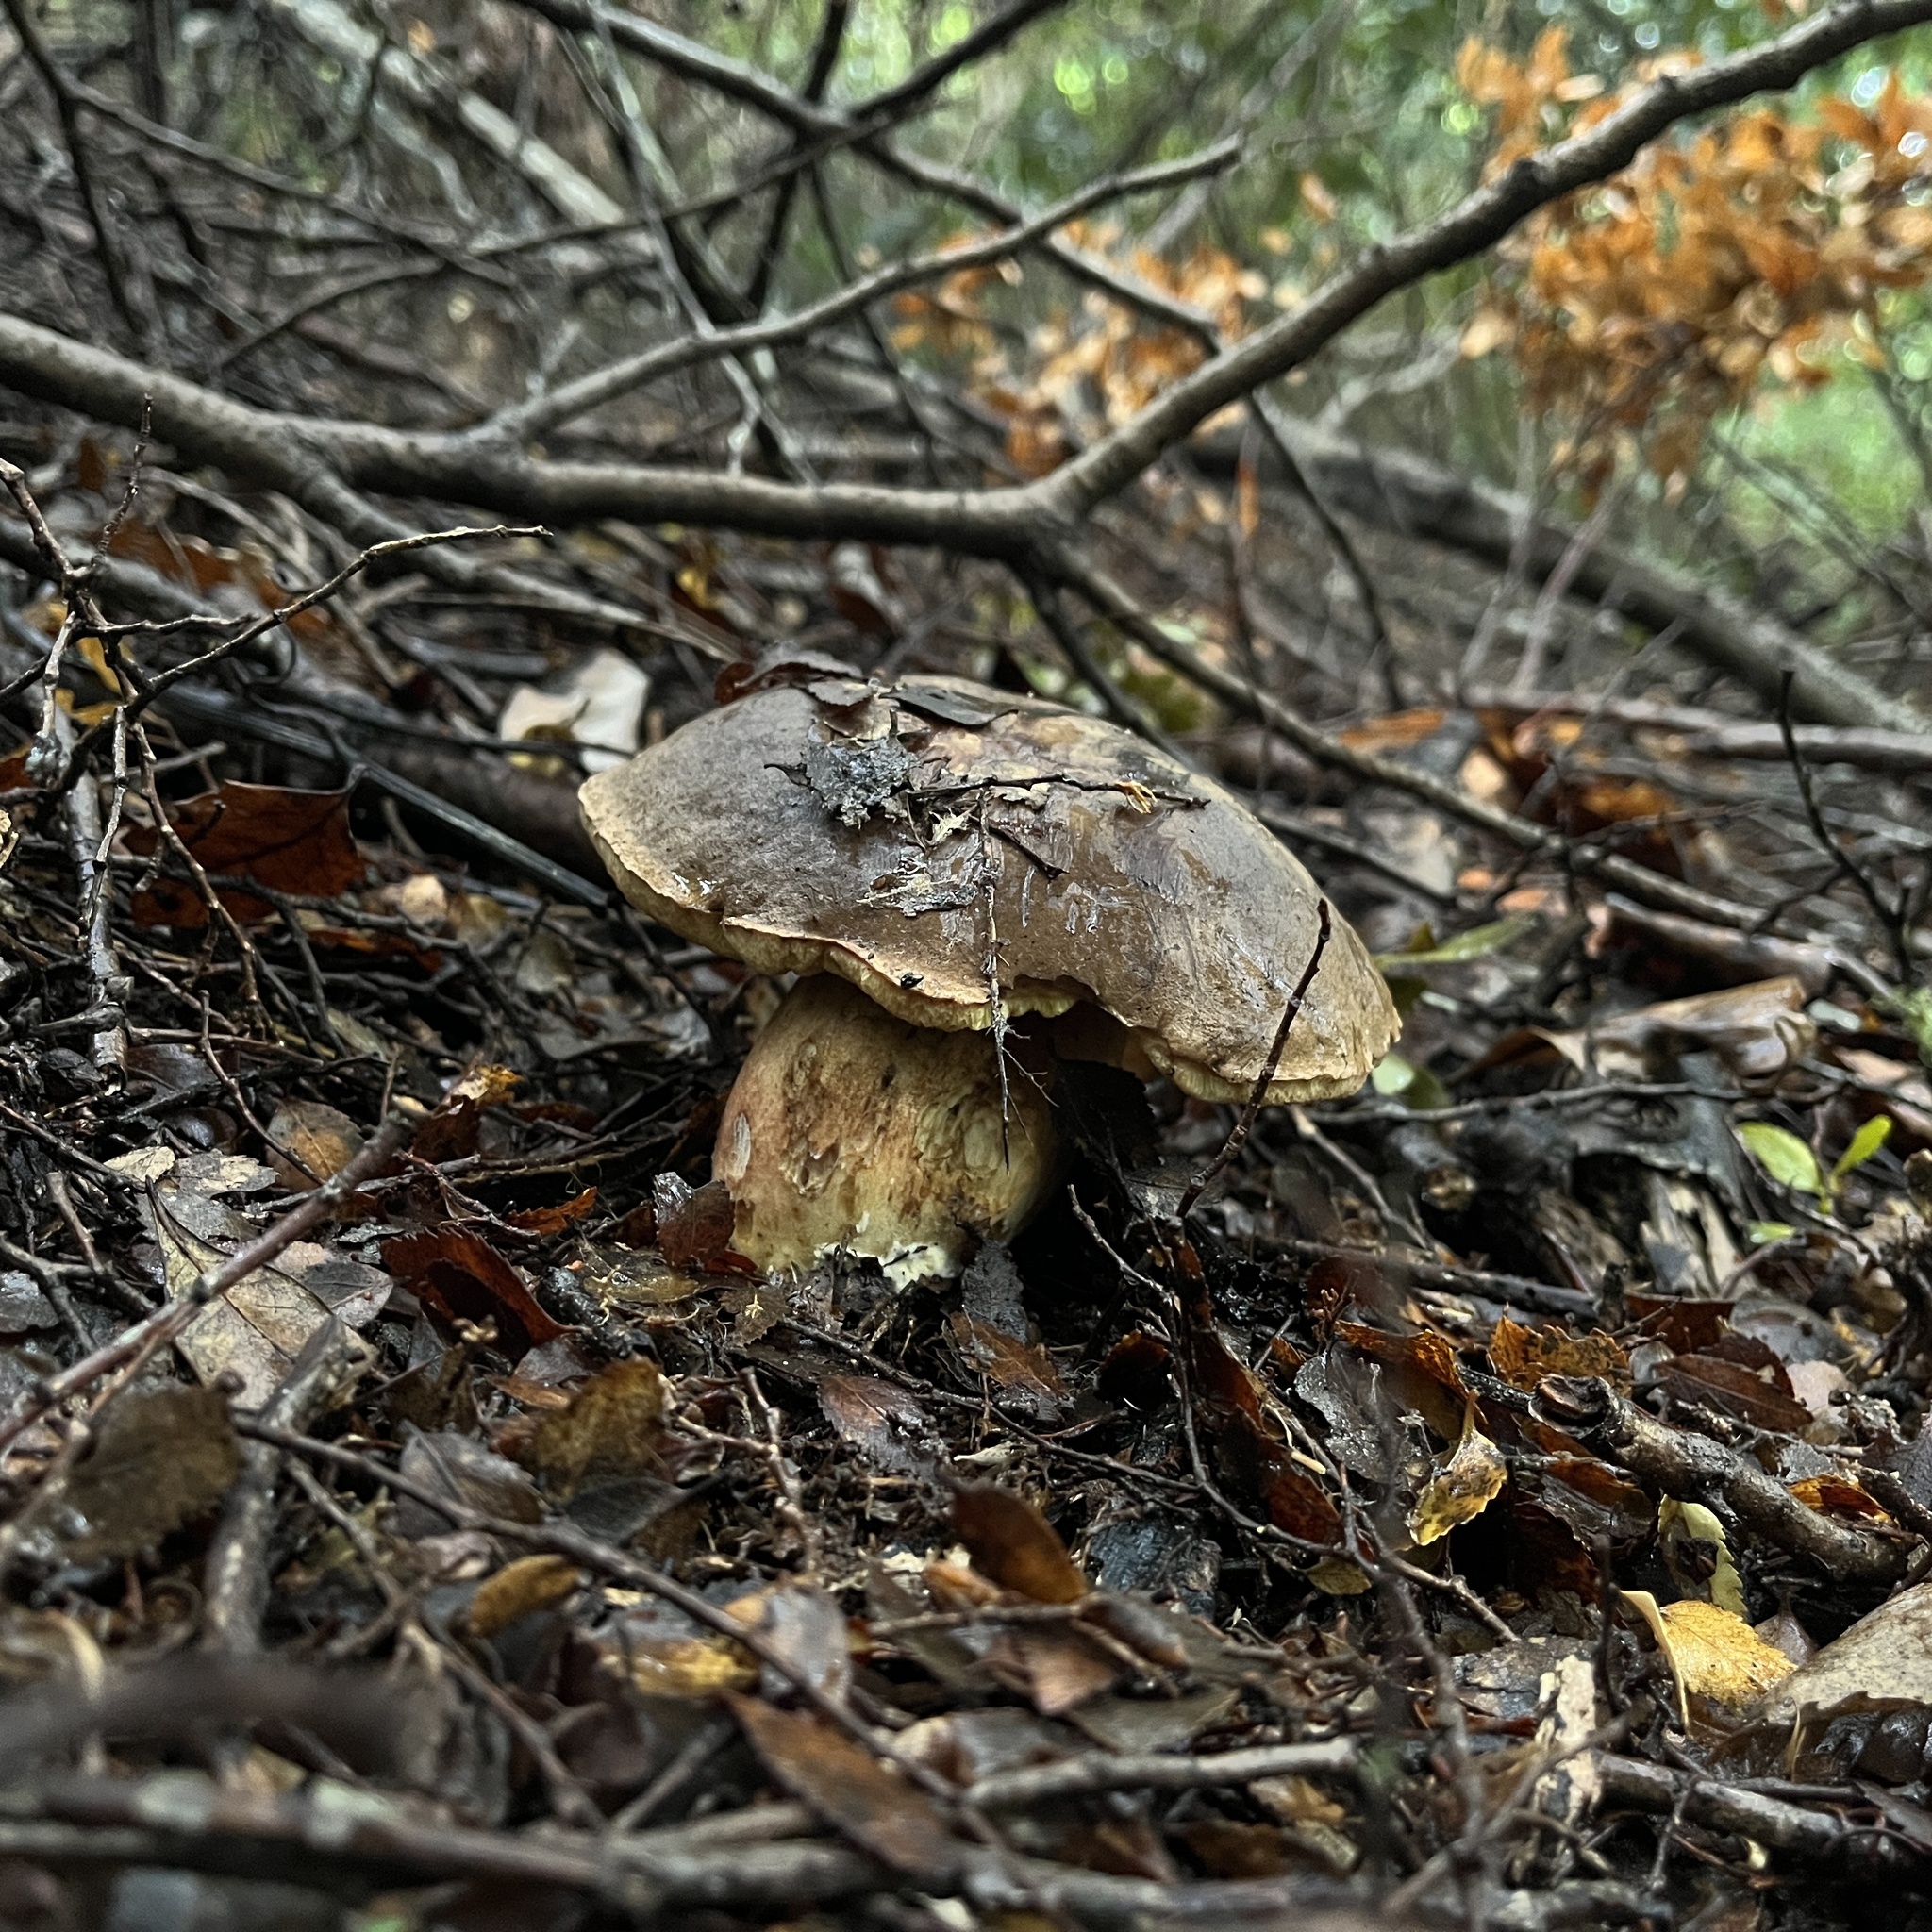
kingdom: Fungi
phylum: Basidiomycota
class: Agaricomycetes
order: Boletales
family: Boletaceae
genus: Boletus
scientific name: Boletus putidus
